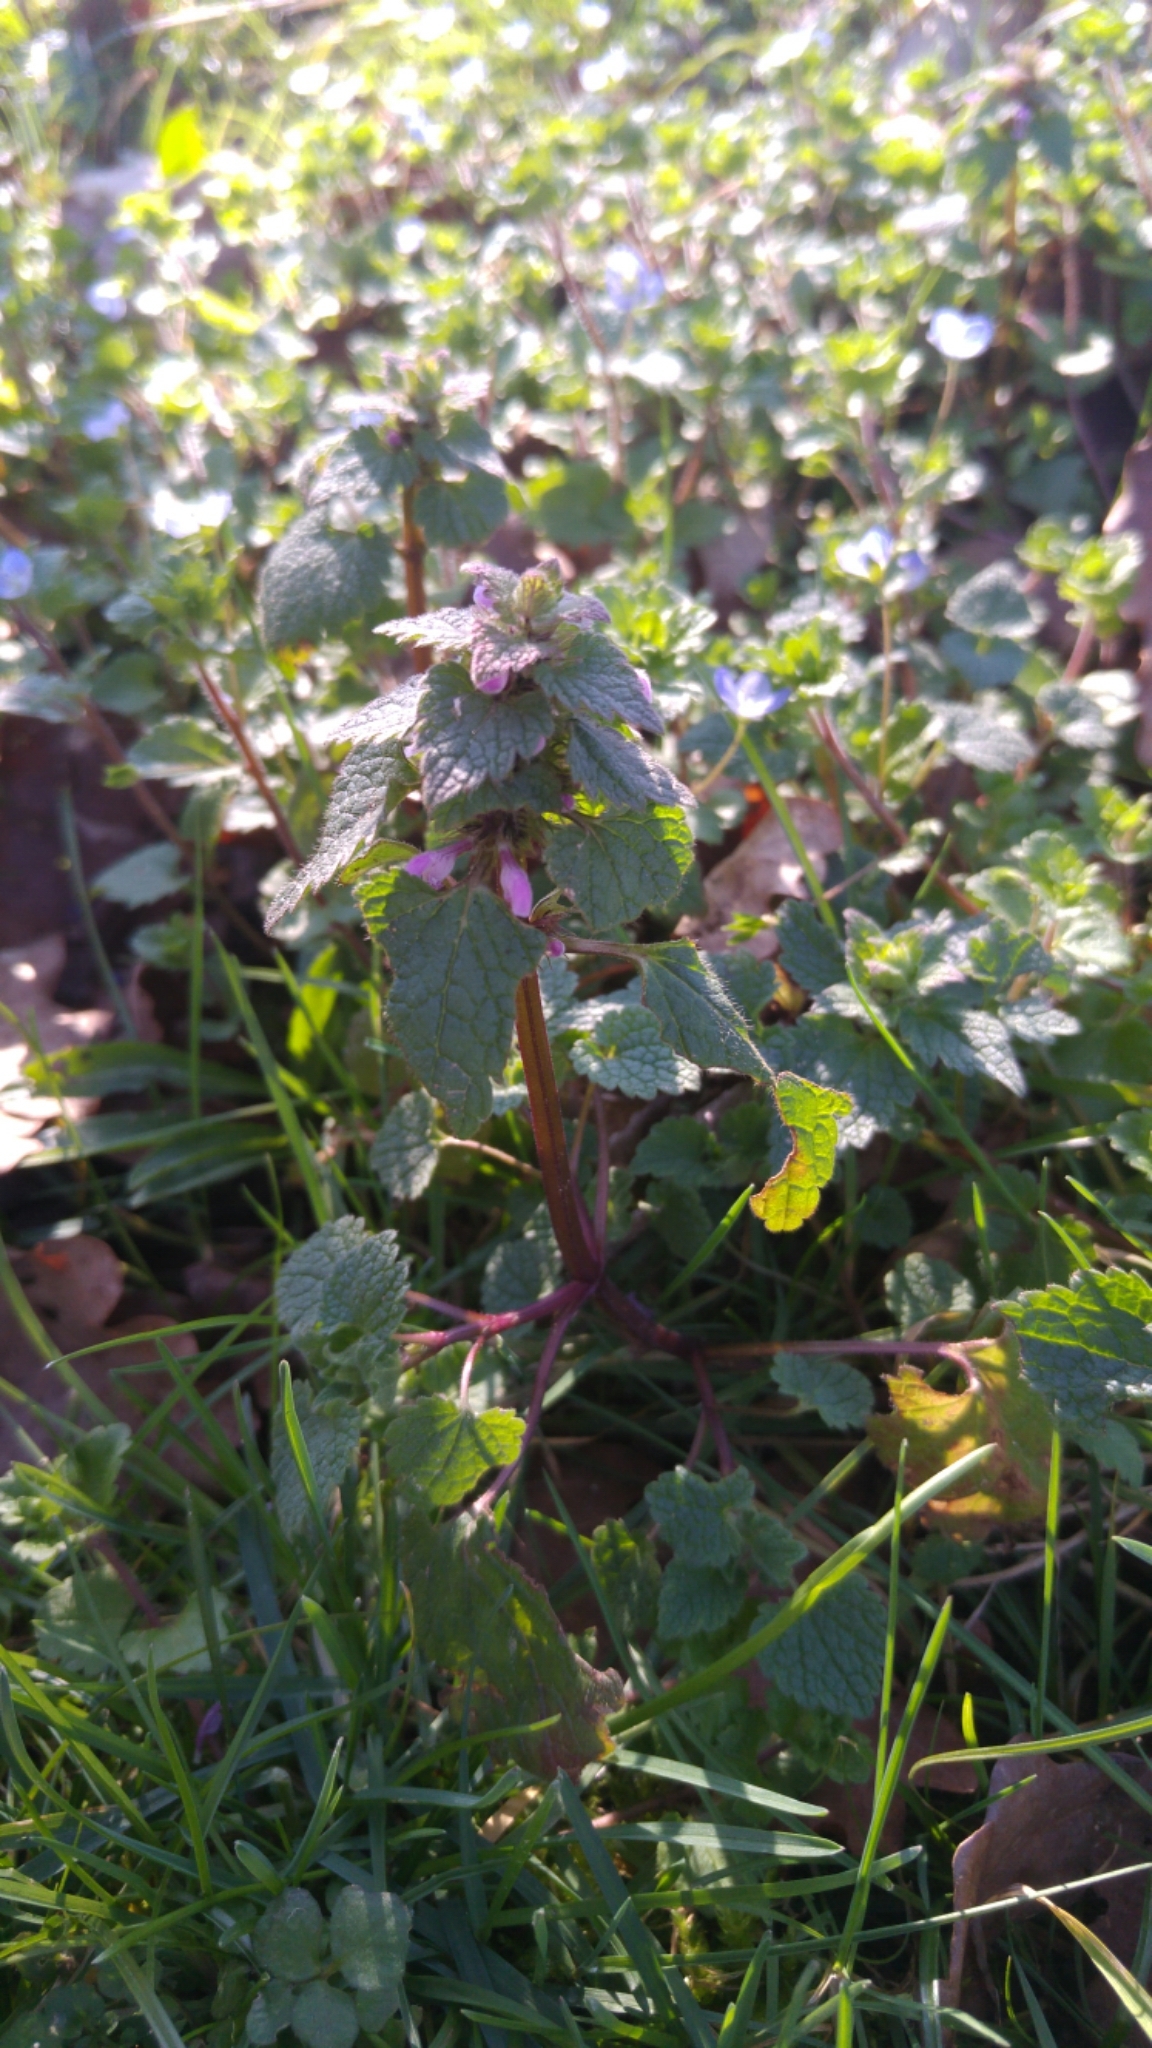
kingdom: Plantae
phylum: Tracheophyta
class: Magnoliopsida
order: Lamiales
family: Lamiaceae
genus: Lamium
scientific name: Lamium purpureum
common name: Red dead-nettle
